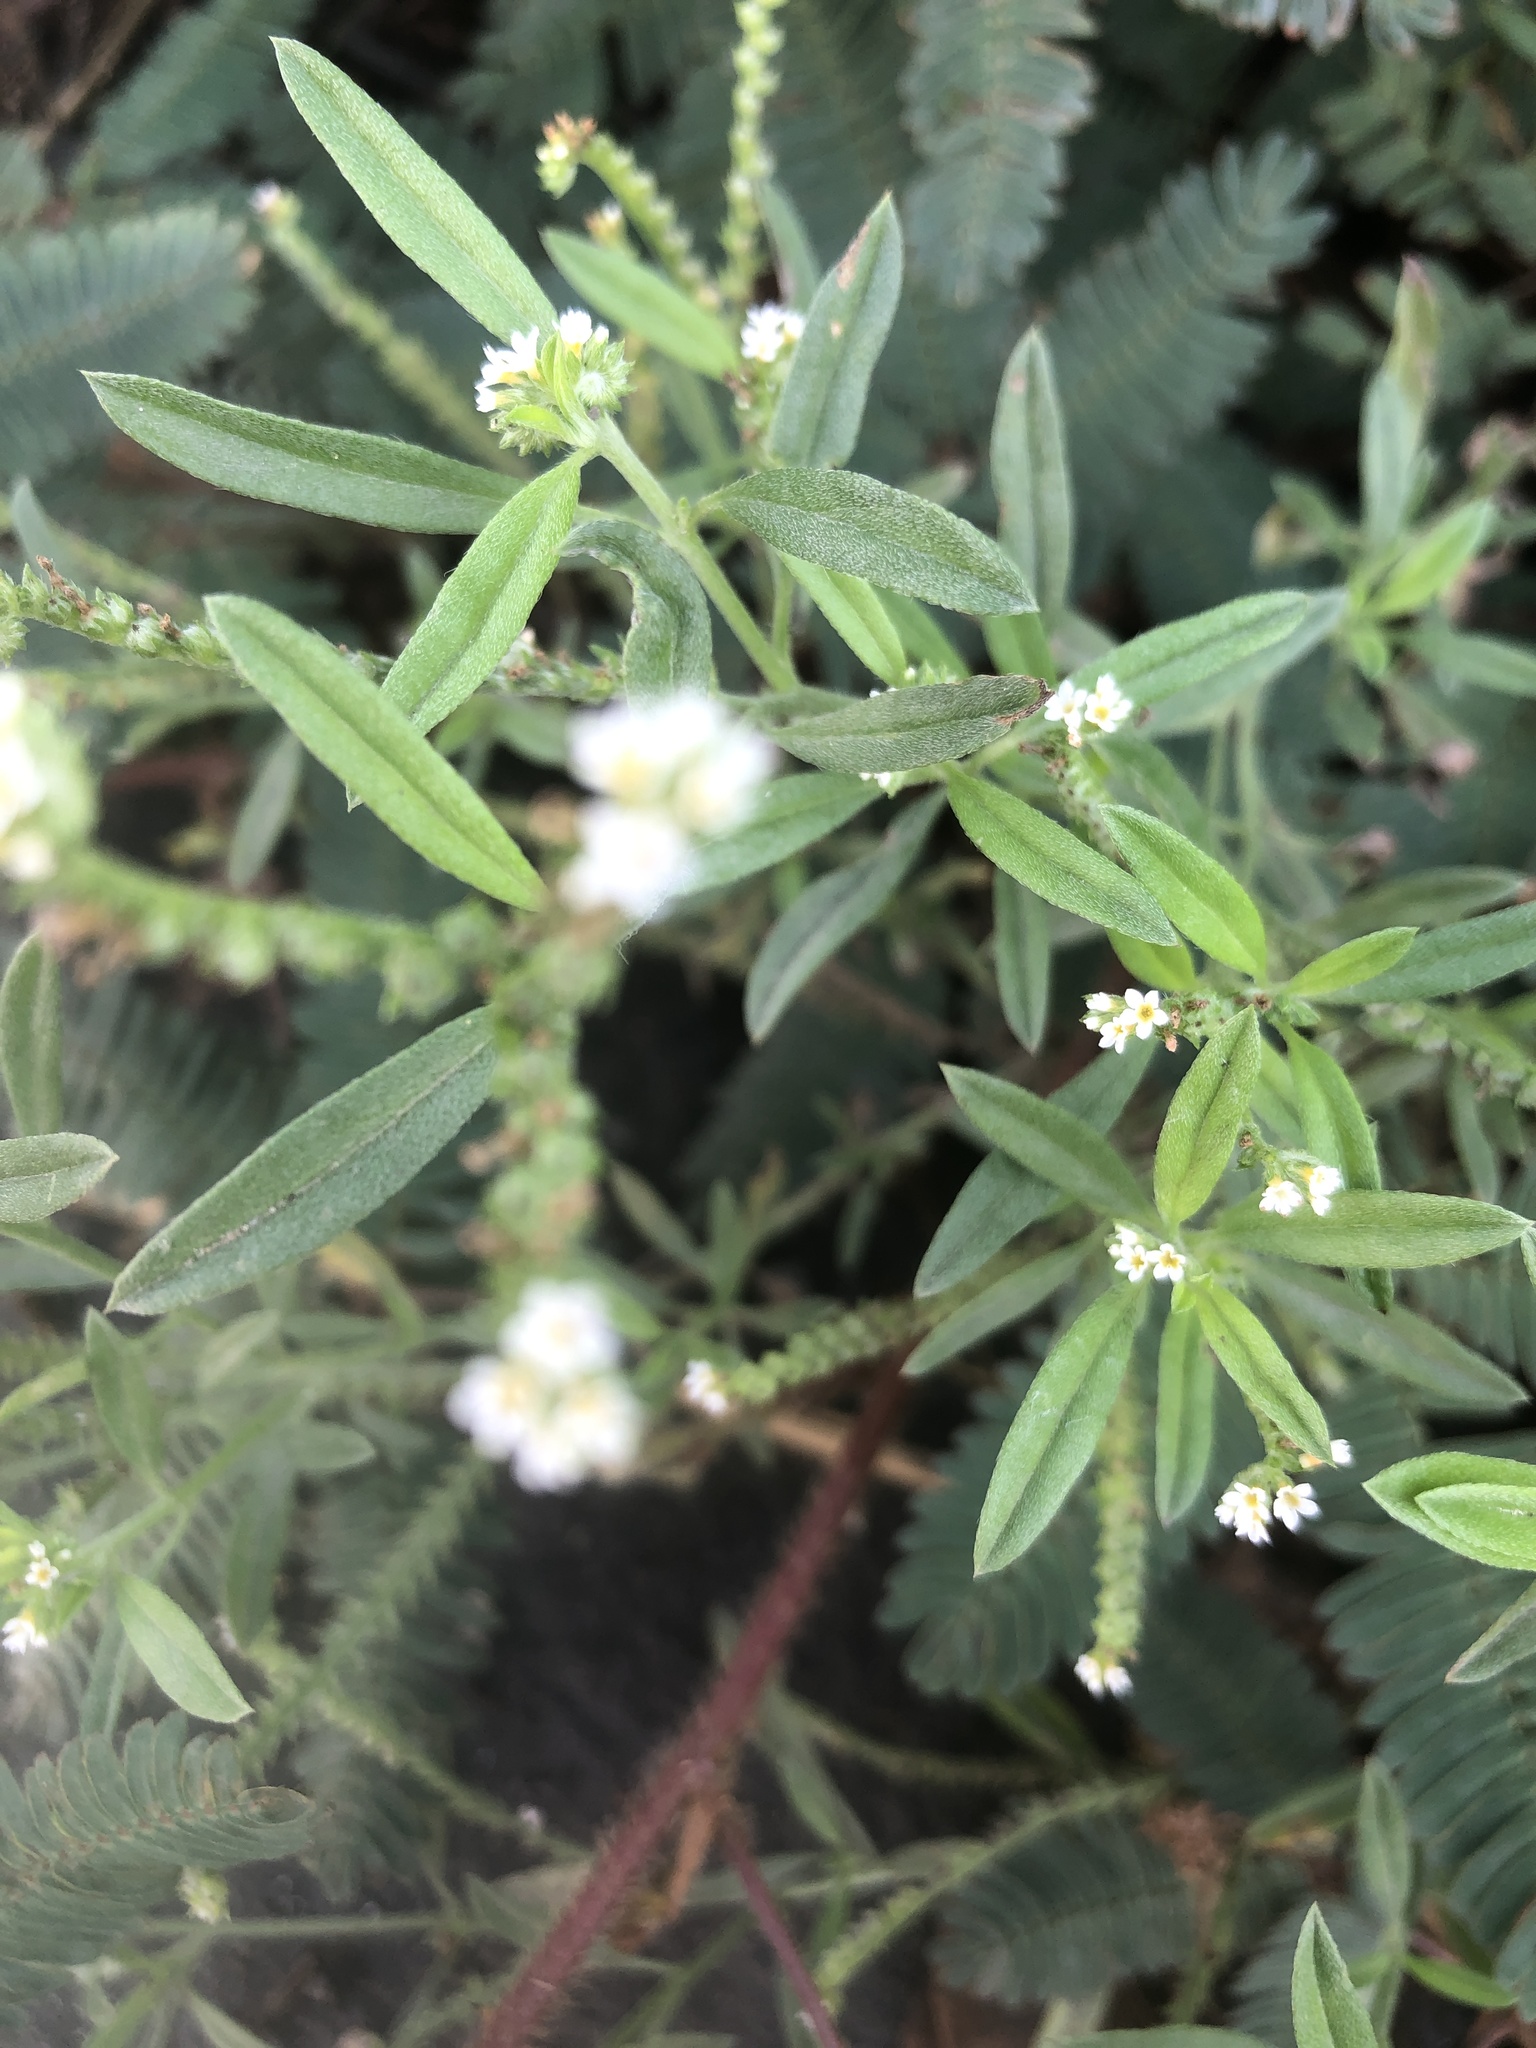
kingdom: Plantae
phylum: Tracheophyta
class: Magnoliopsida
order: Boraginales
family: Heliotropiaceae
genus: Euploca
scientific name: Euploca procumbens
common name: Fourspike heliotrope
